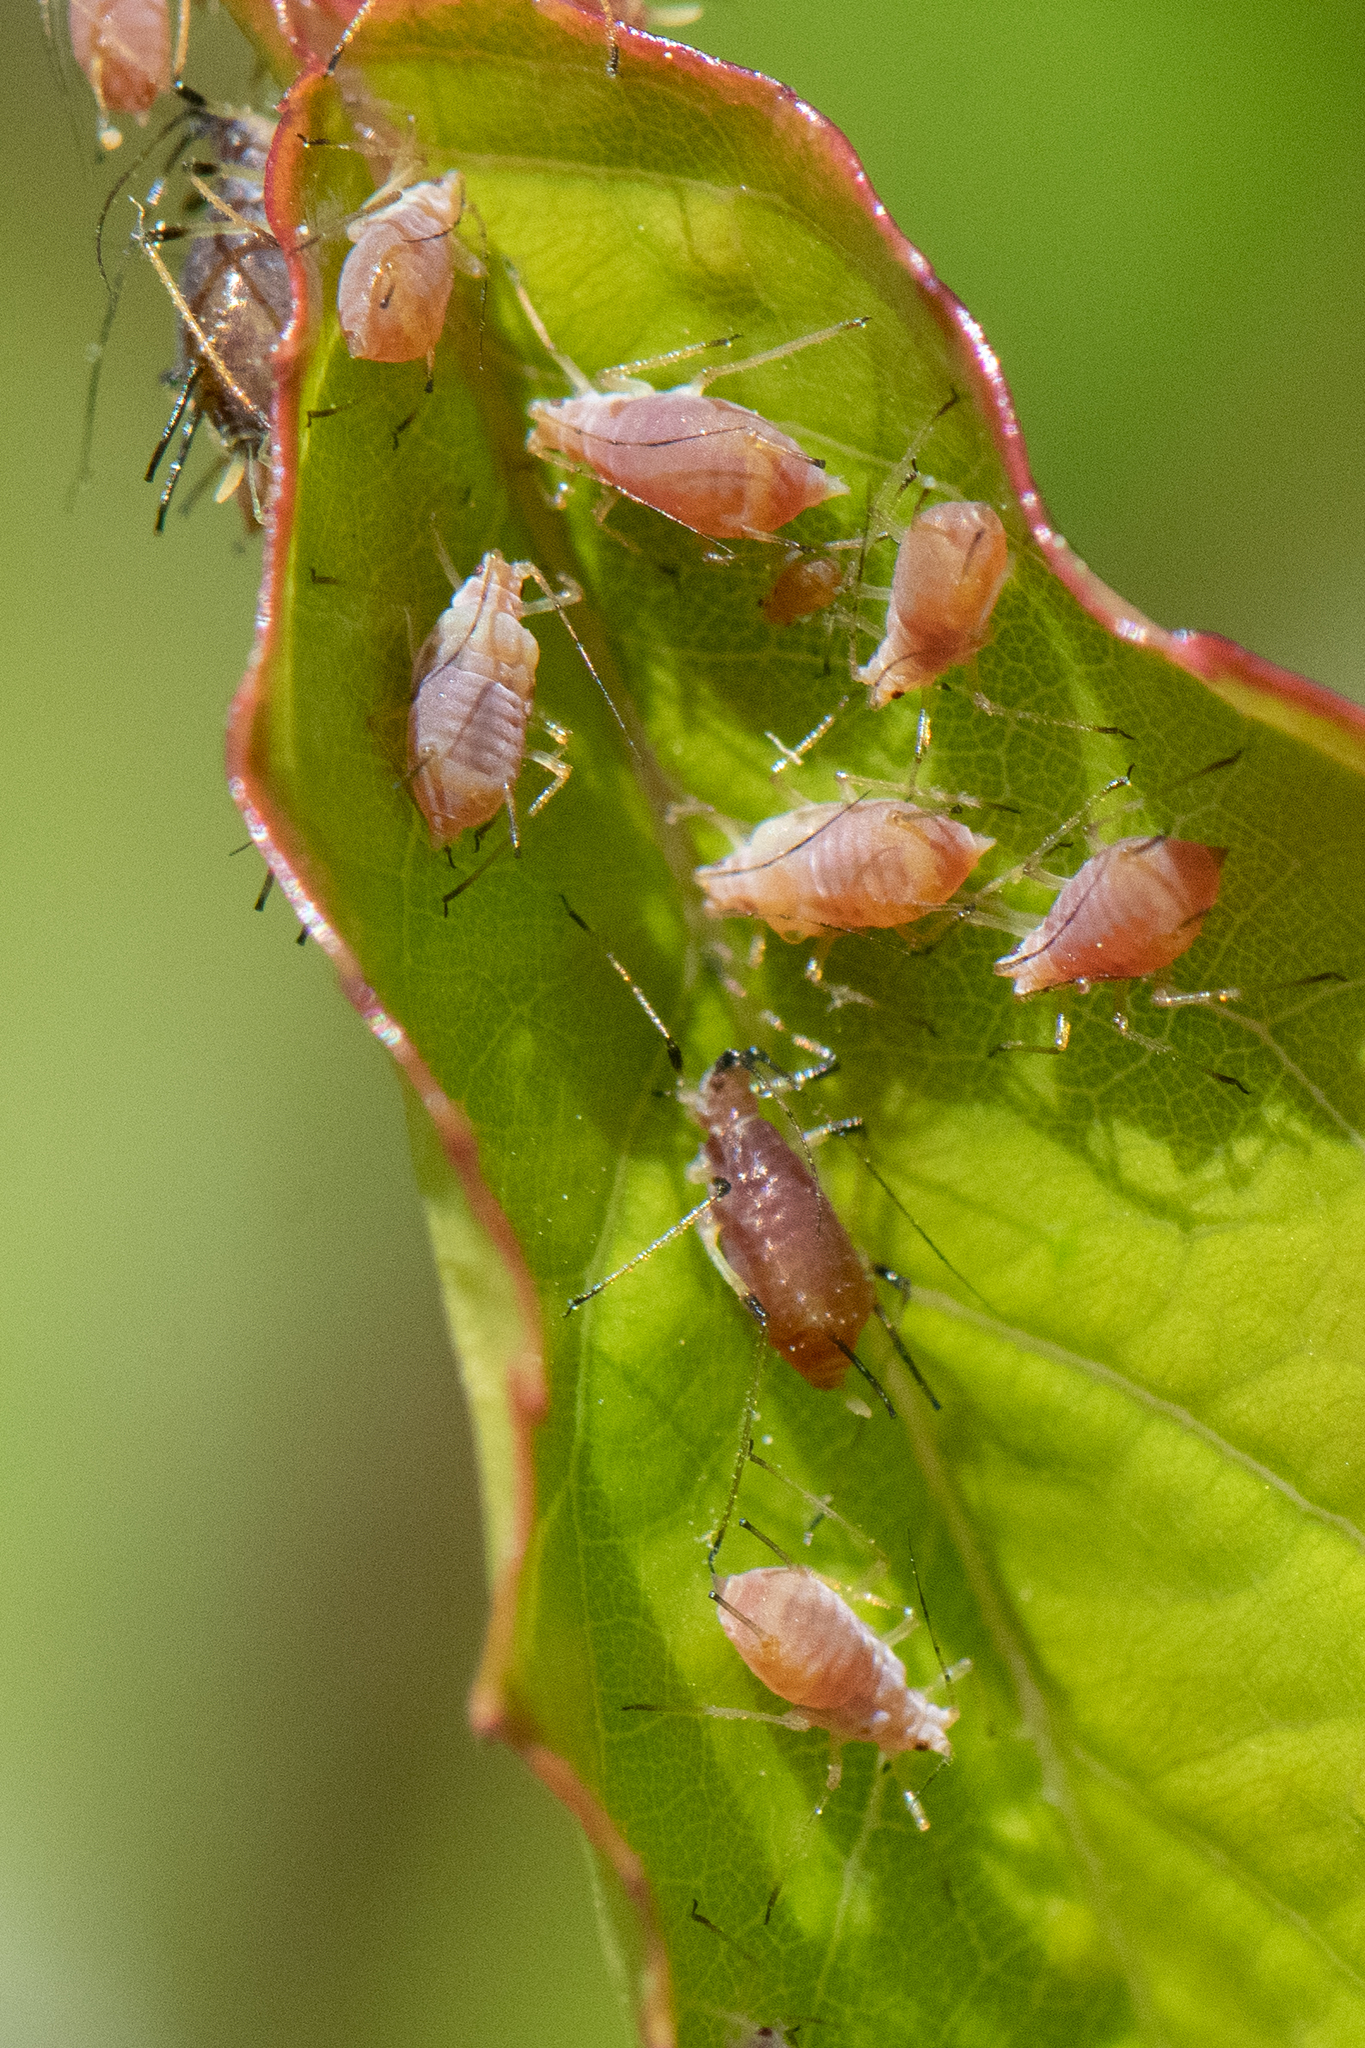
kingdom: Animalia
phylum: Arthropoda
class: Insecta
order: Hemiptera
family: Aphididae
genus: Macrosiphum
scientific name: Macrosiphum rosae
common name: Rose aphid
